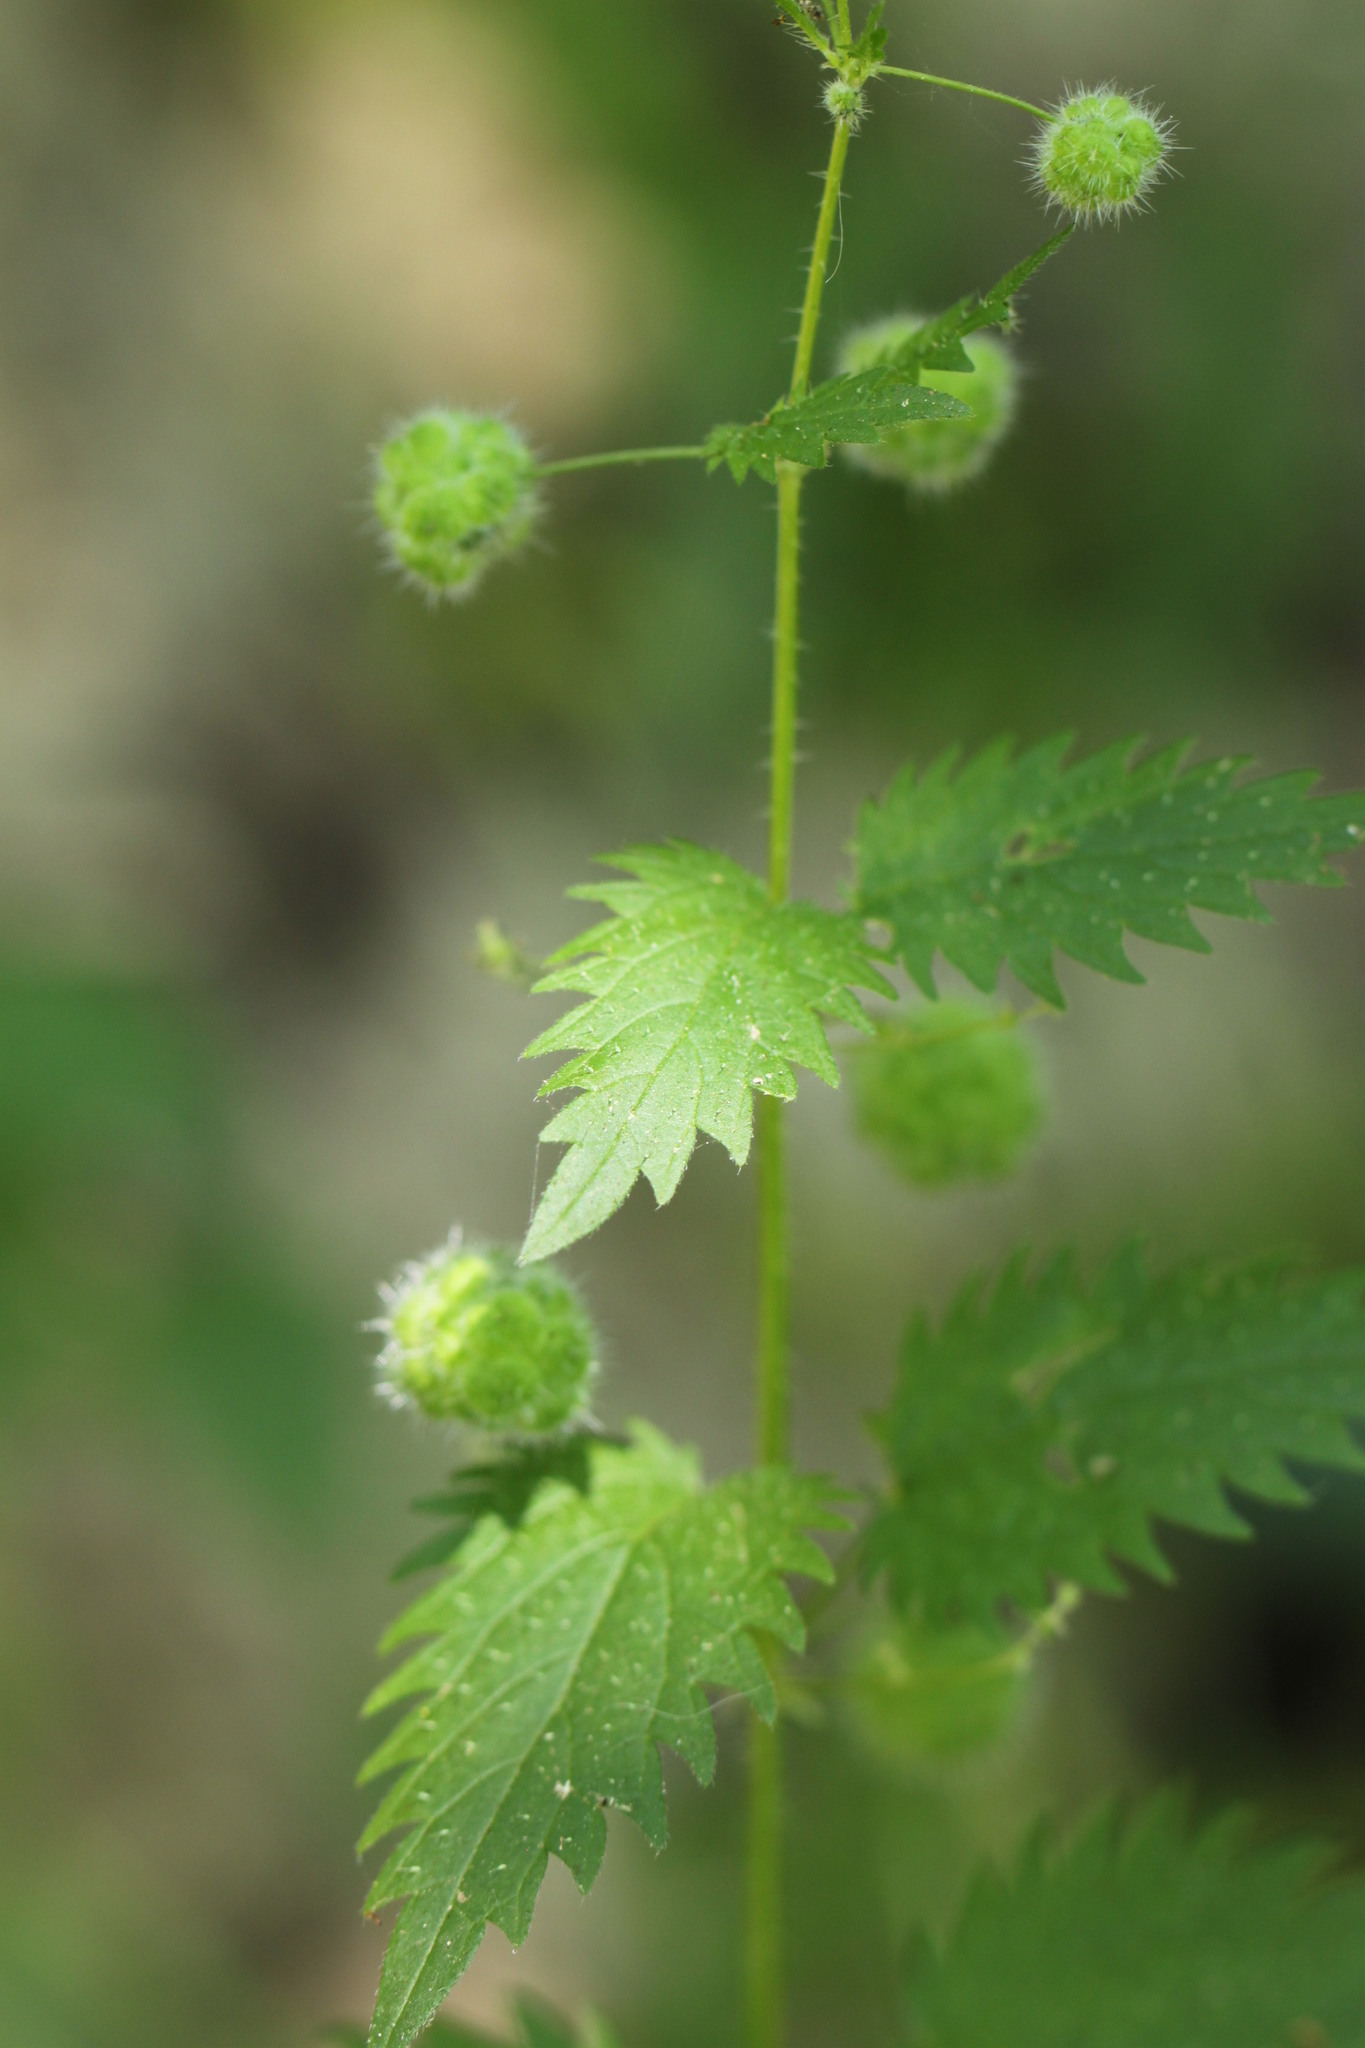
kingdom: Plantae
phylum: Tracheophyta
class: Magnoliopsida
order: Rosales
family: Urticaceae
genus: Urtica
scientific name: Urtica pilulifera
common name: Roman nettle
